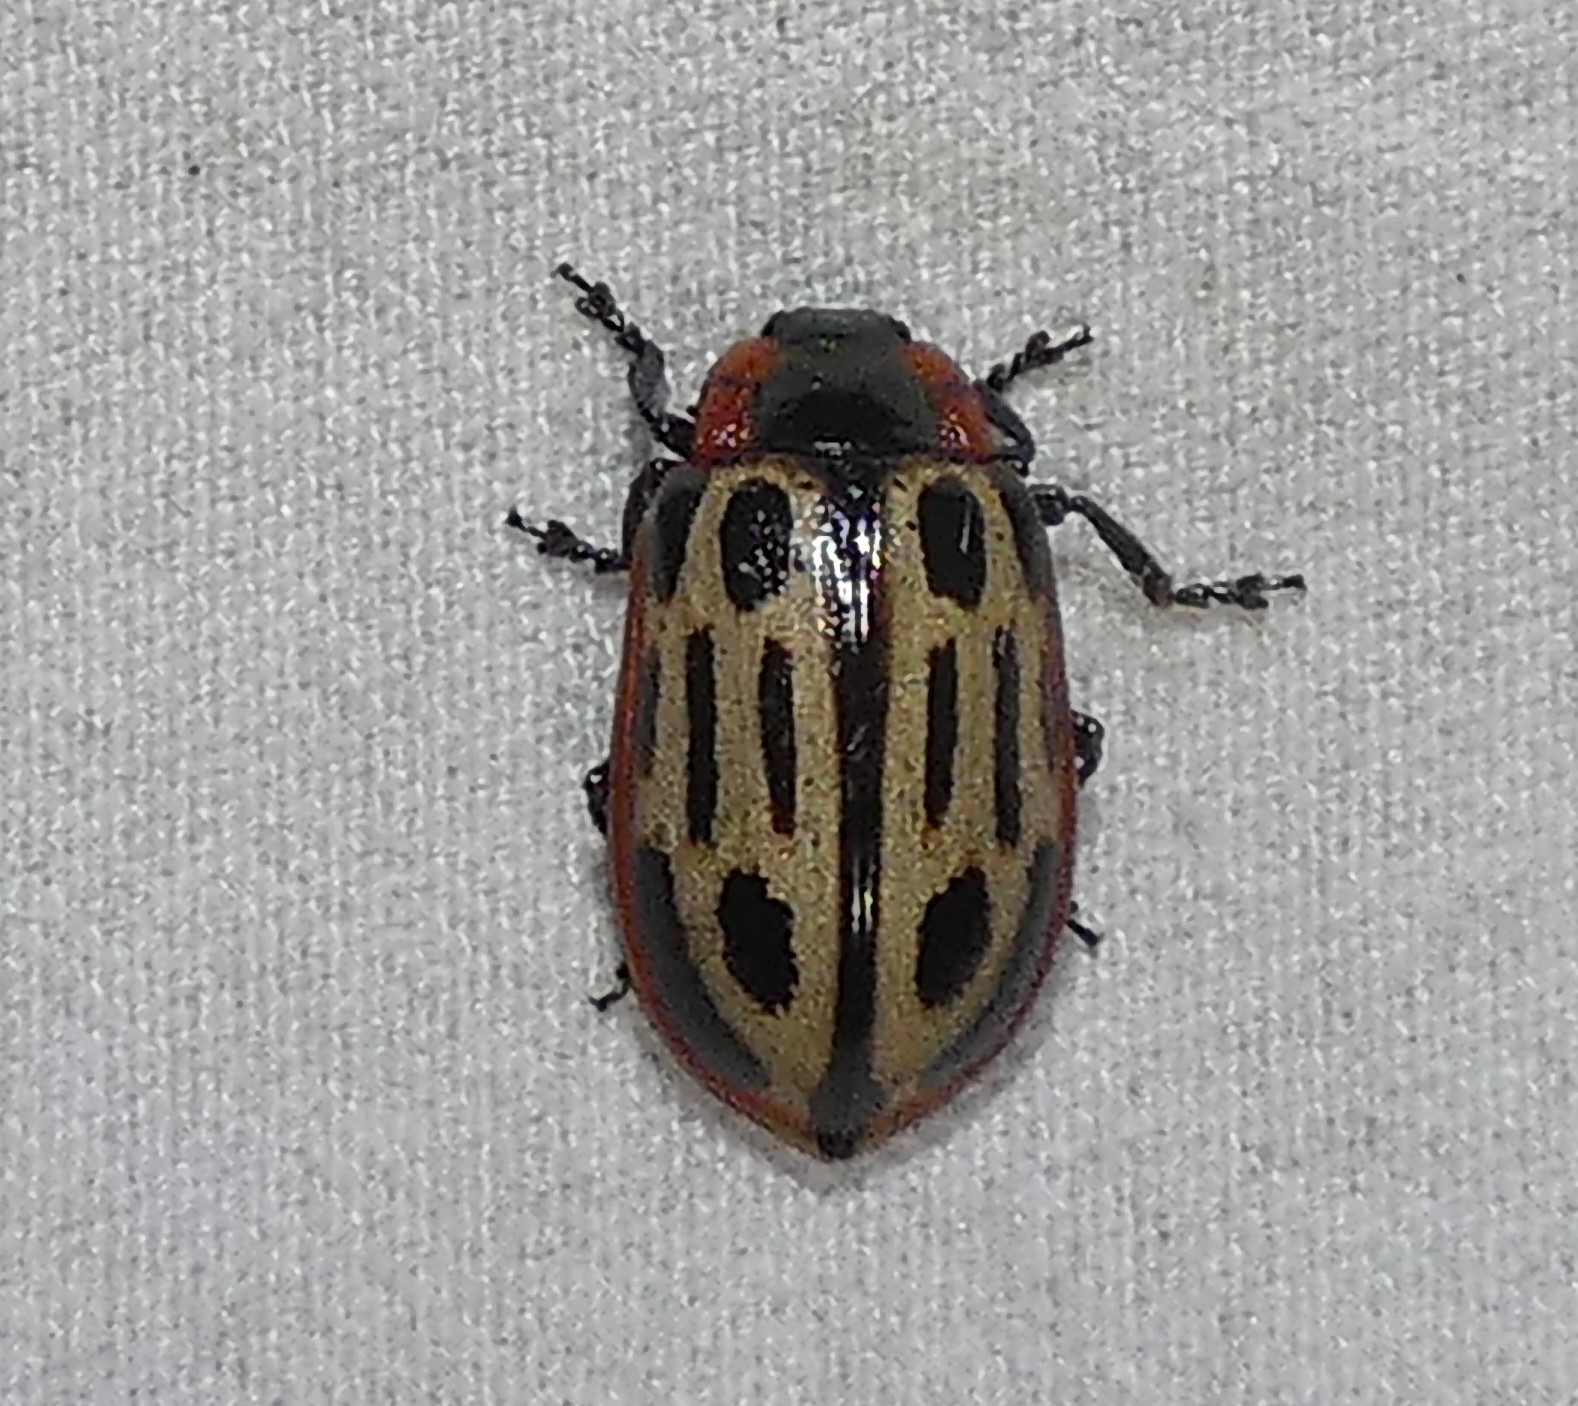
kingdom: Animalia
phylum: Arthropoda
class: Insecta
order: Coleoptera
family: Chrysomelidae
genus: Aethiopocassis
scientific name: Aethiopocassis scripta
